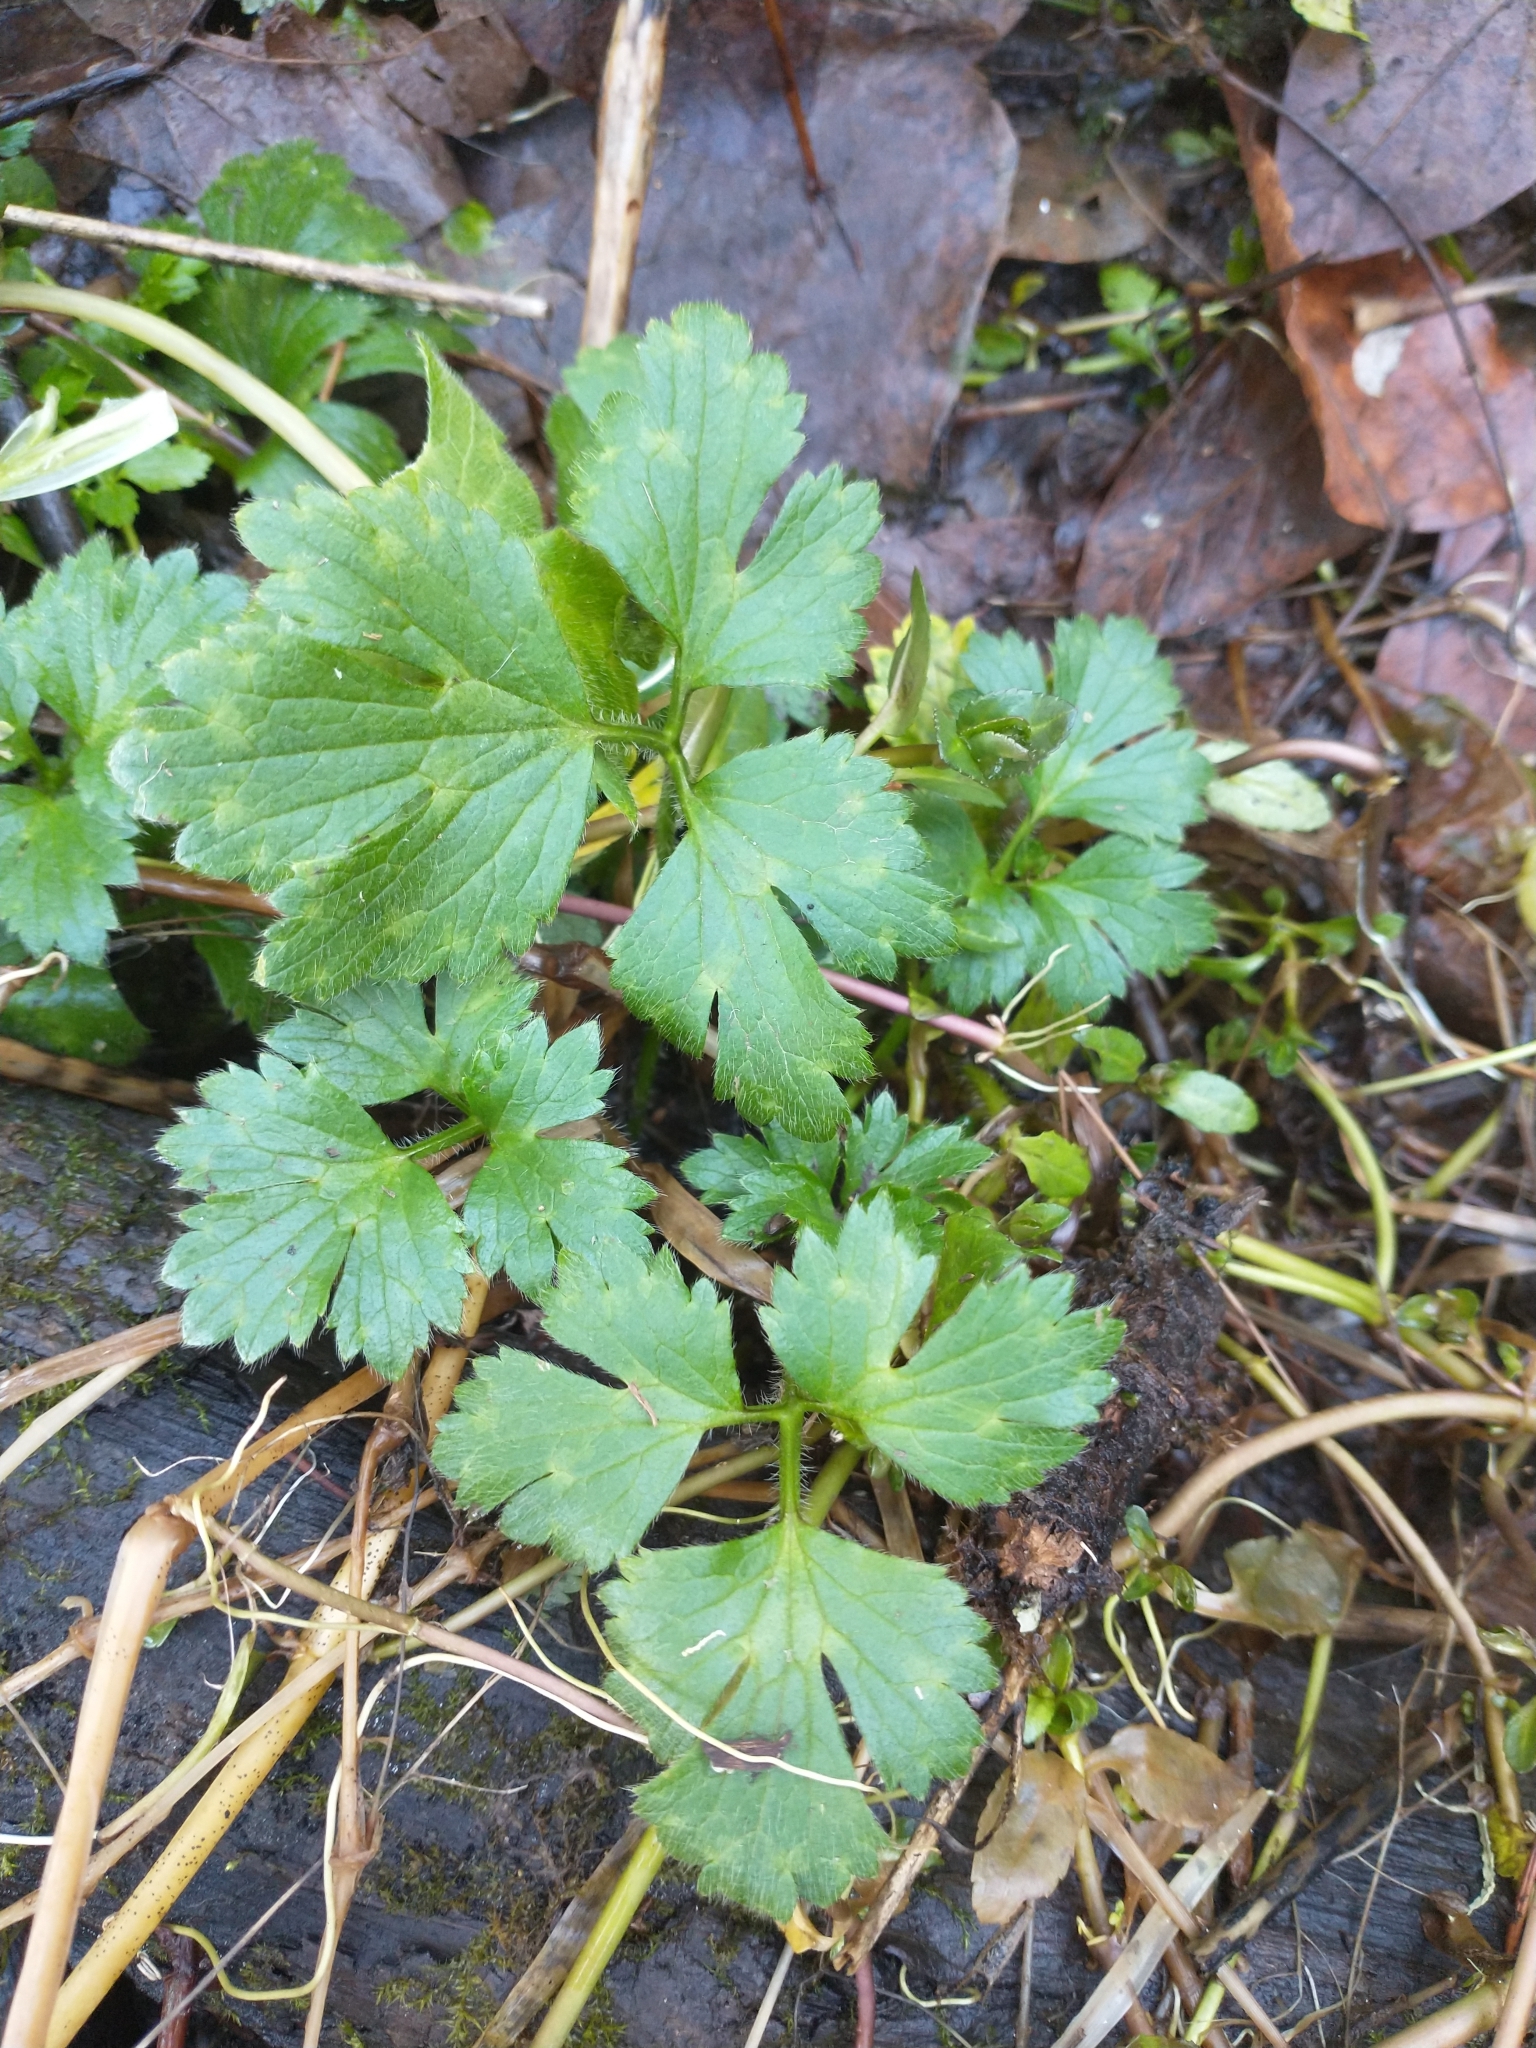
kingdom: Plantae
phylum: Tracheophyta
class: Magnoliopsida
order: Ranunculales
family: Ranunculaceae
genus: Ranunculus
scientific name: Ranunculus repens
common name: Creeping buttercup
